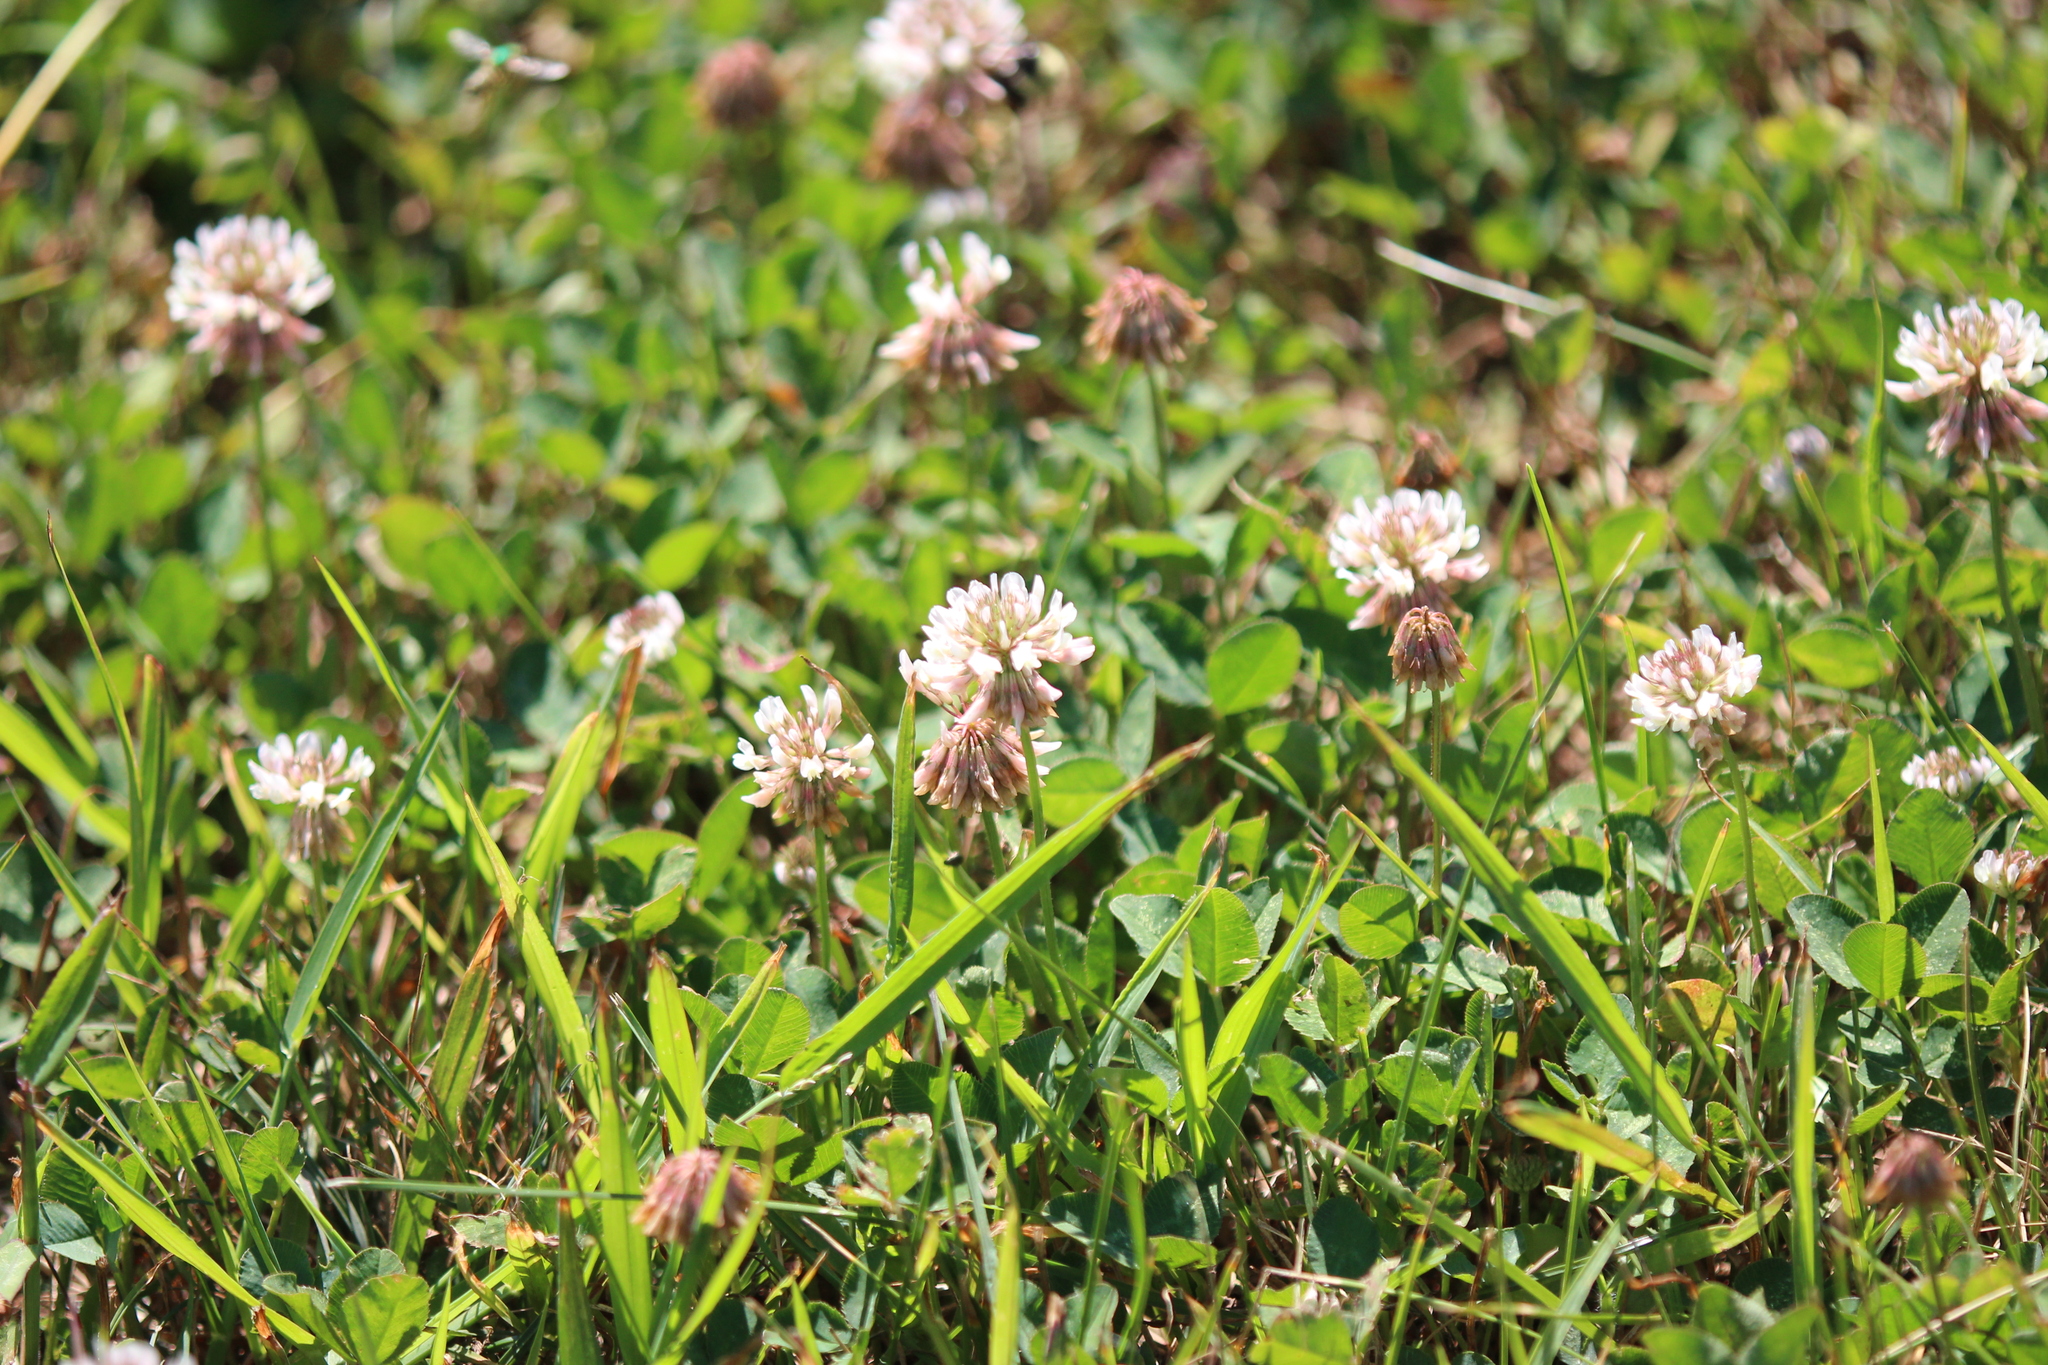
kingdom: Plantae
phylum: Tracheophyta
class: Magnoliopsida
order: Fabales
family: Fabaceae
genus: Trifolium
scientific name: Trifolium repens
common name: White clover
